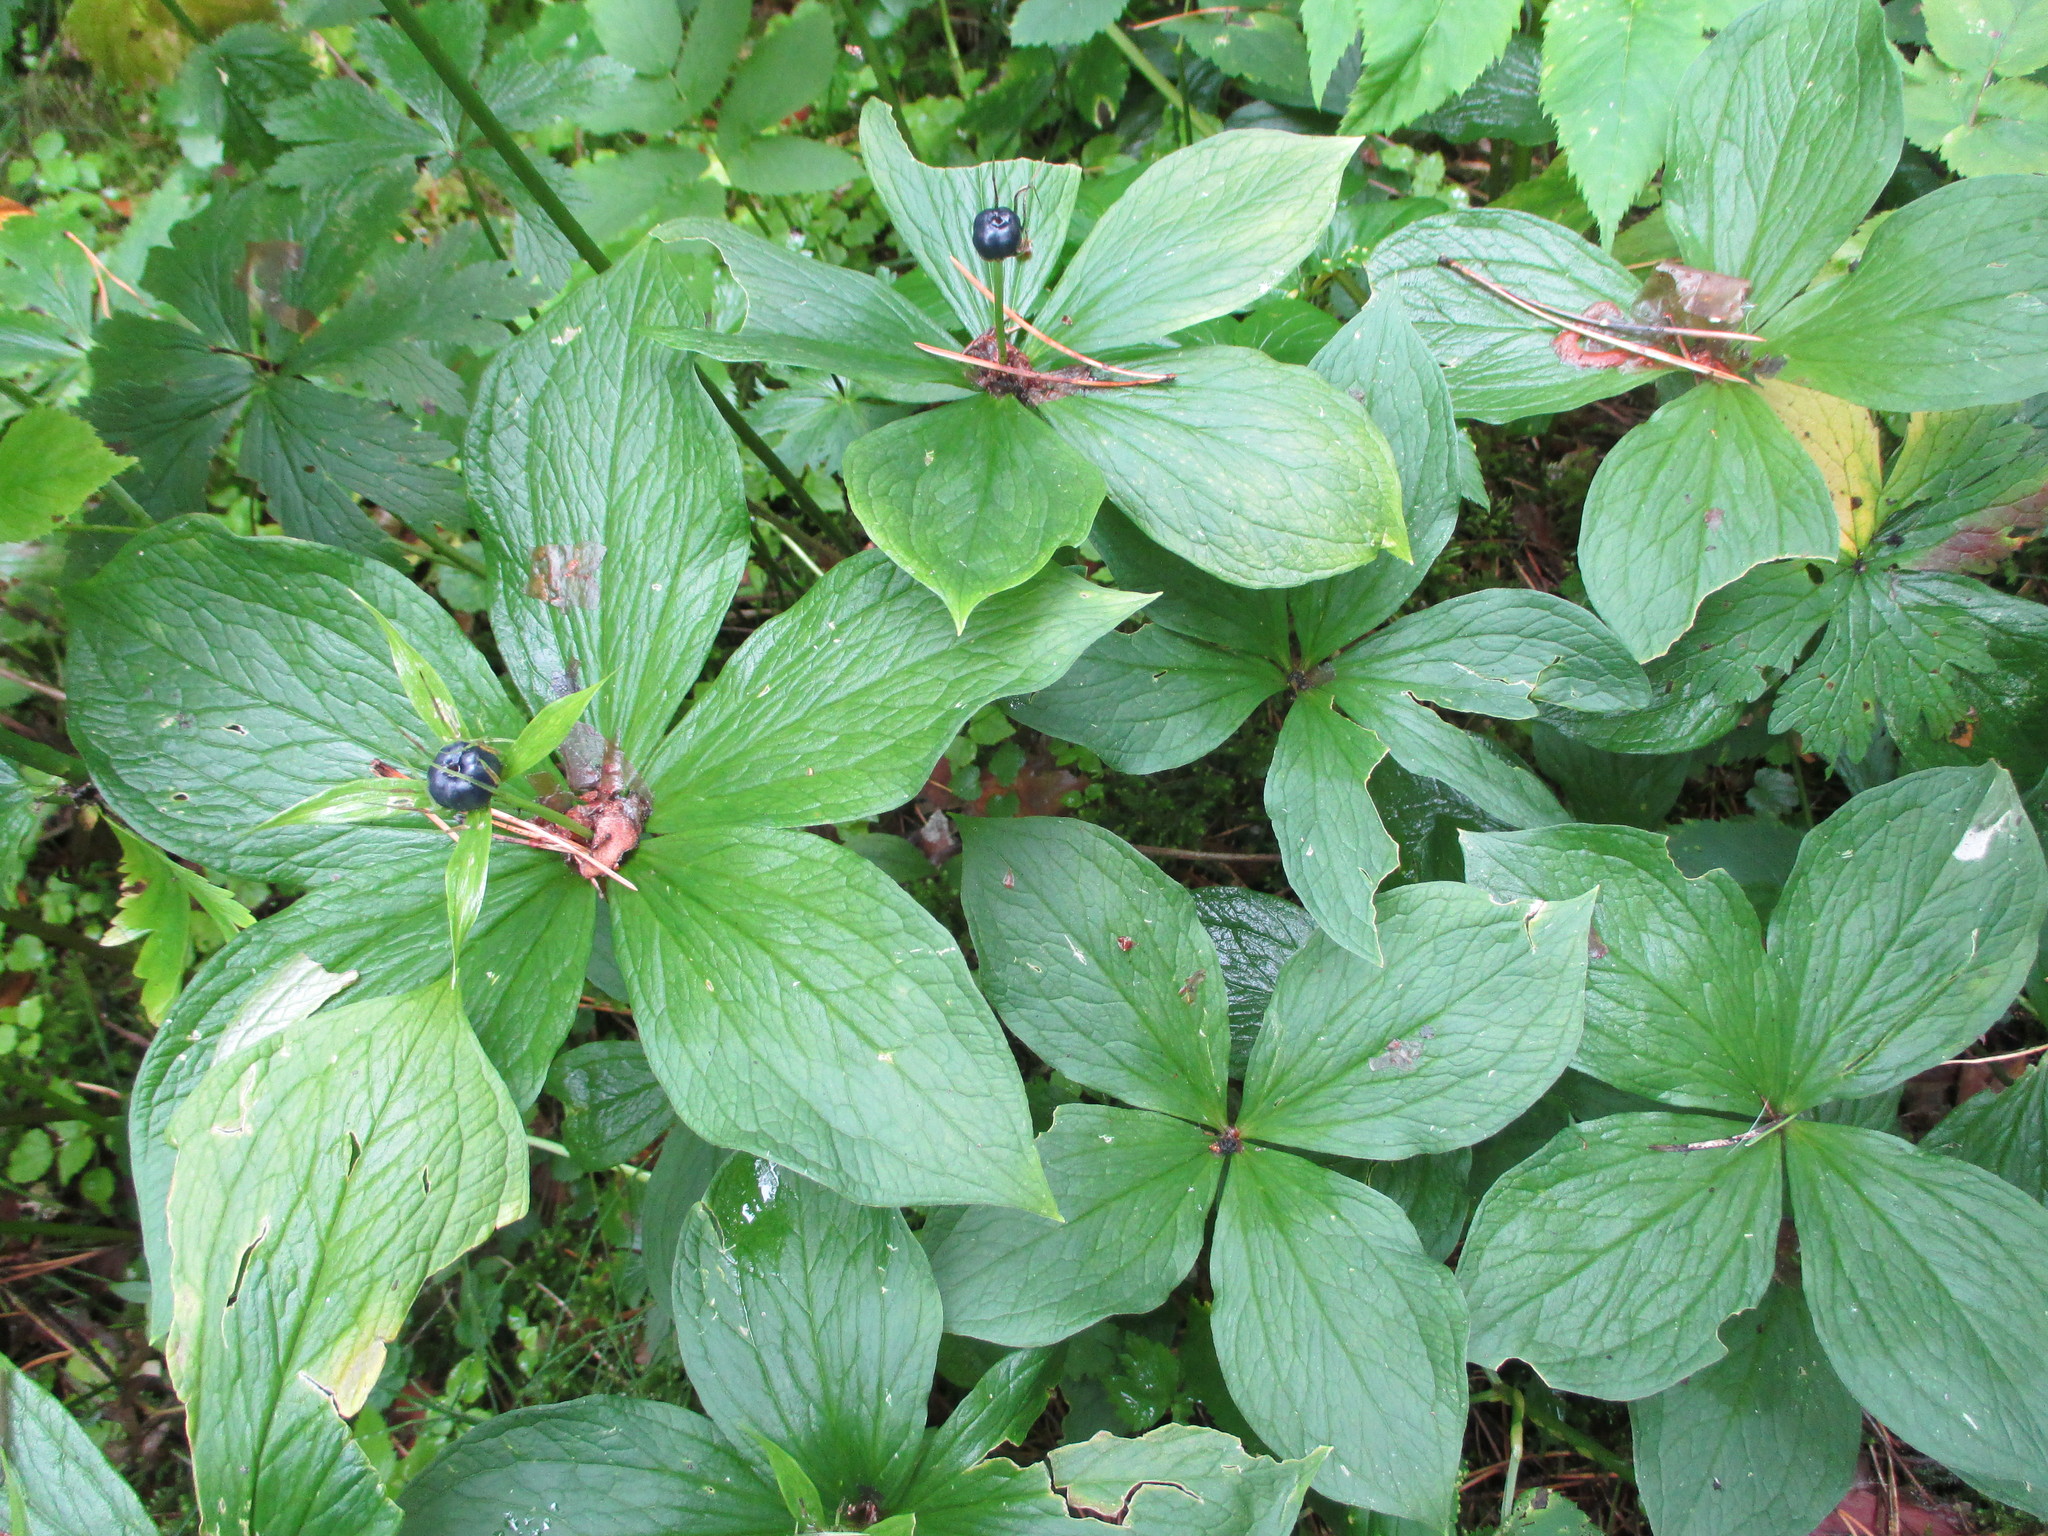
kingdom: Plantae
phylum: Tracheophyta
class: Liliopsida
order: Liliales
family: Melanthiaceae
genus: Paris
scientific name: Paris quadrifolia
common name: Herb-paris
